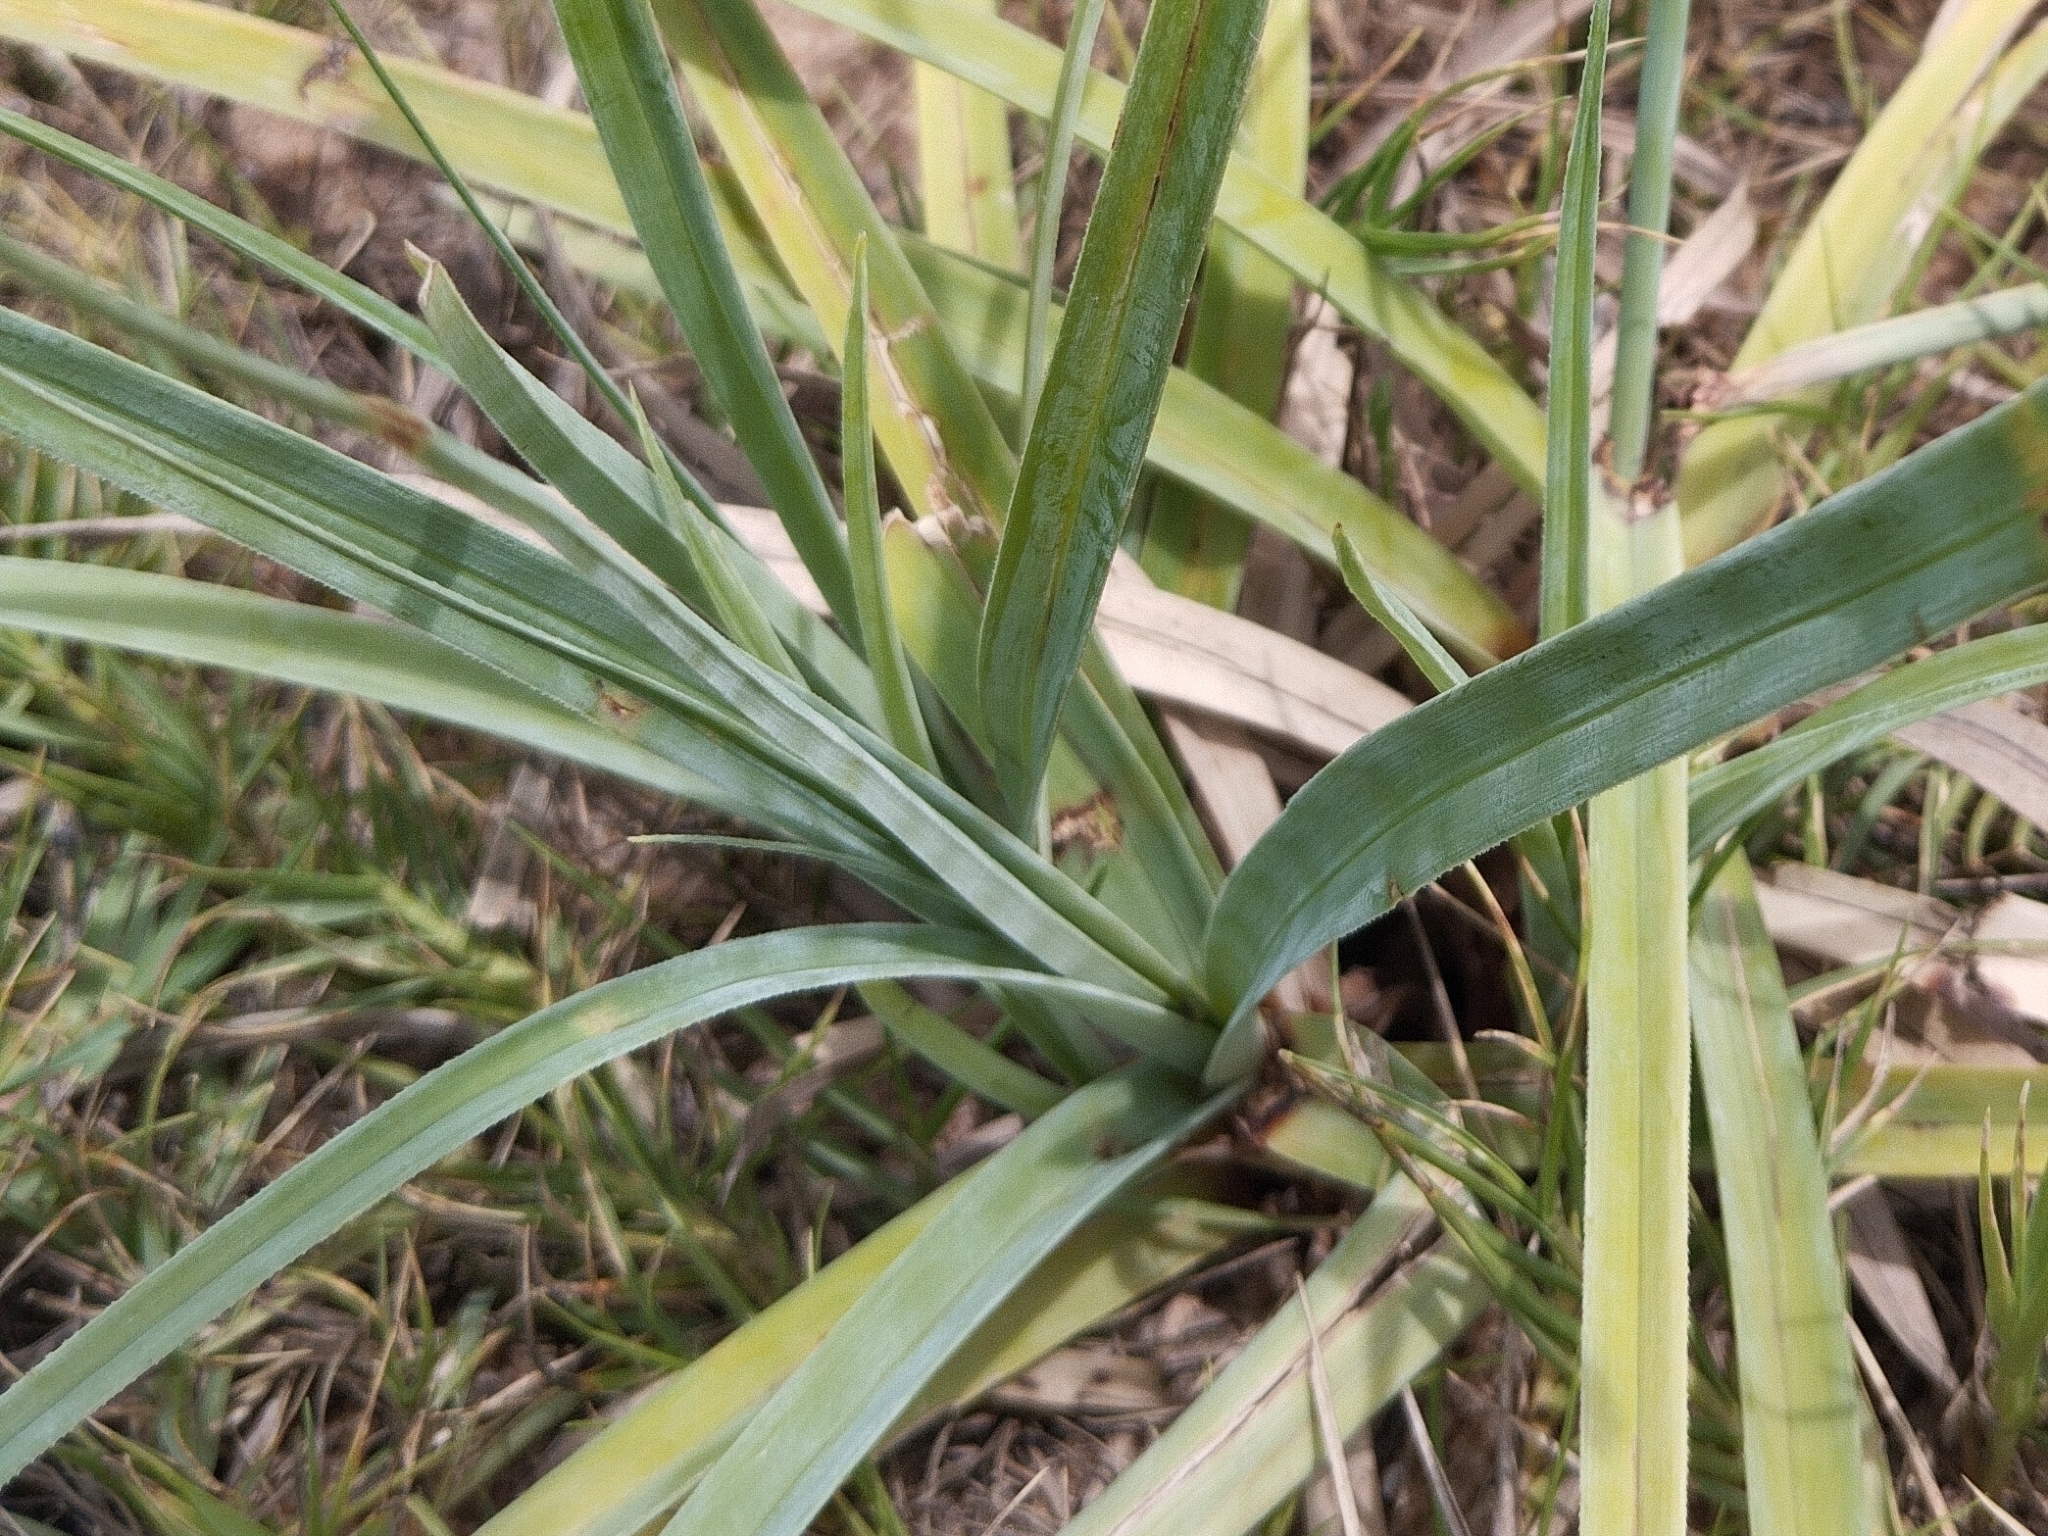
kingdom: Plantae
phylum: Tracheophyta
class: Liliopsida
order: Poales
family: Cyperaceae
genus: Cyperus
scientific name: Cyperus ligularis
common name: Swamp flat sedge
